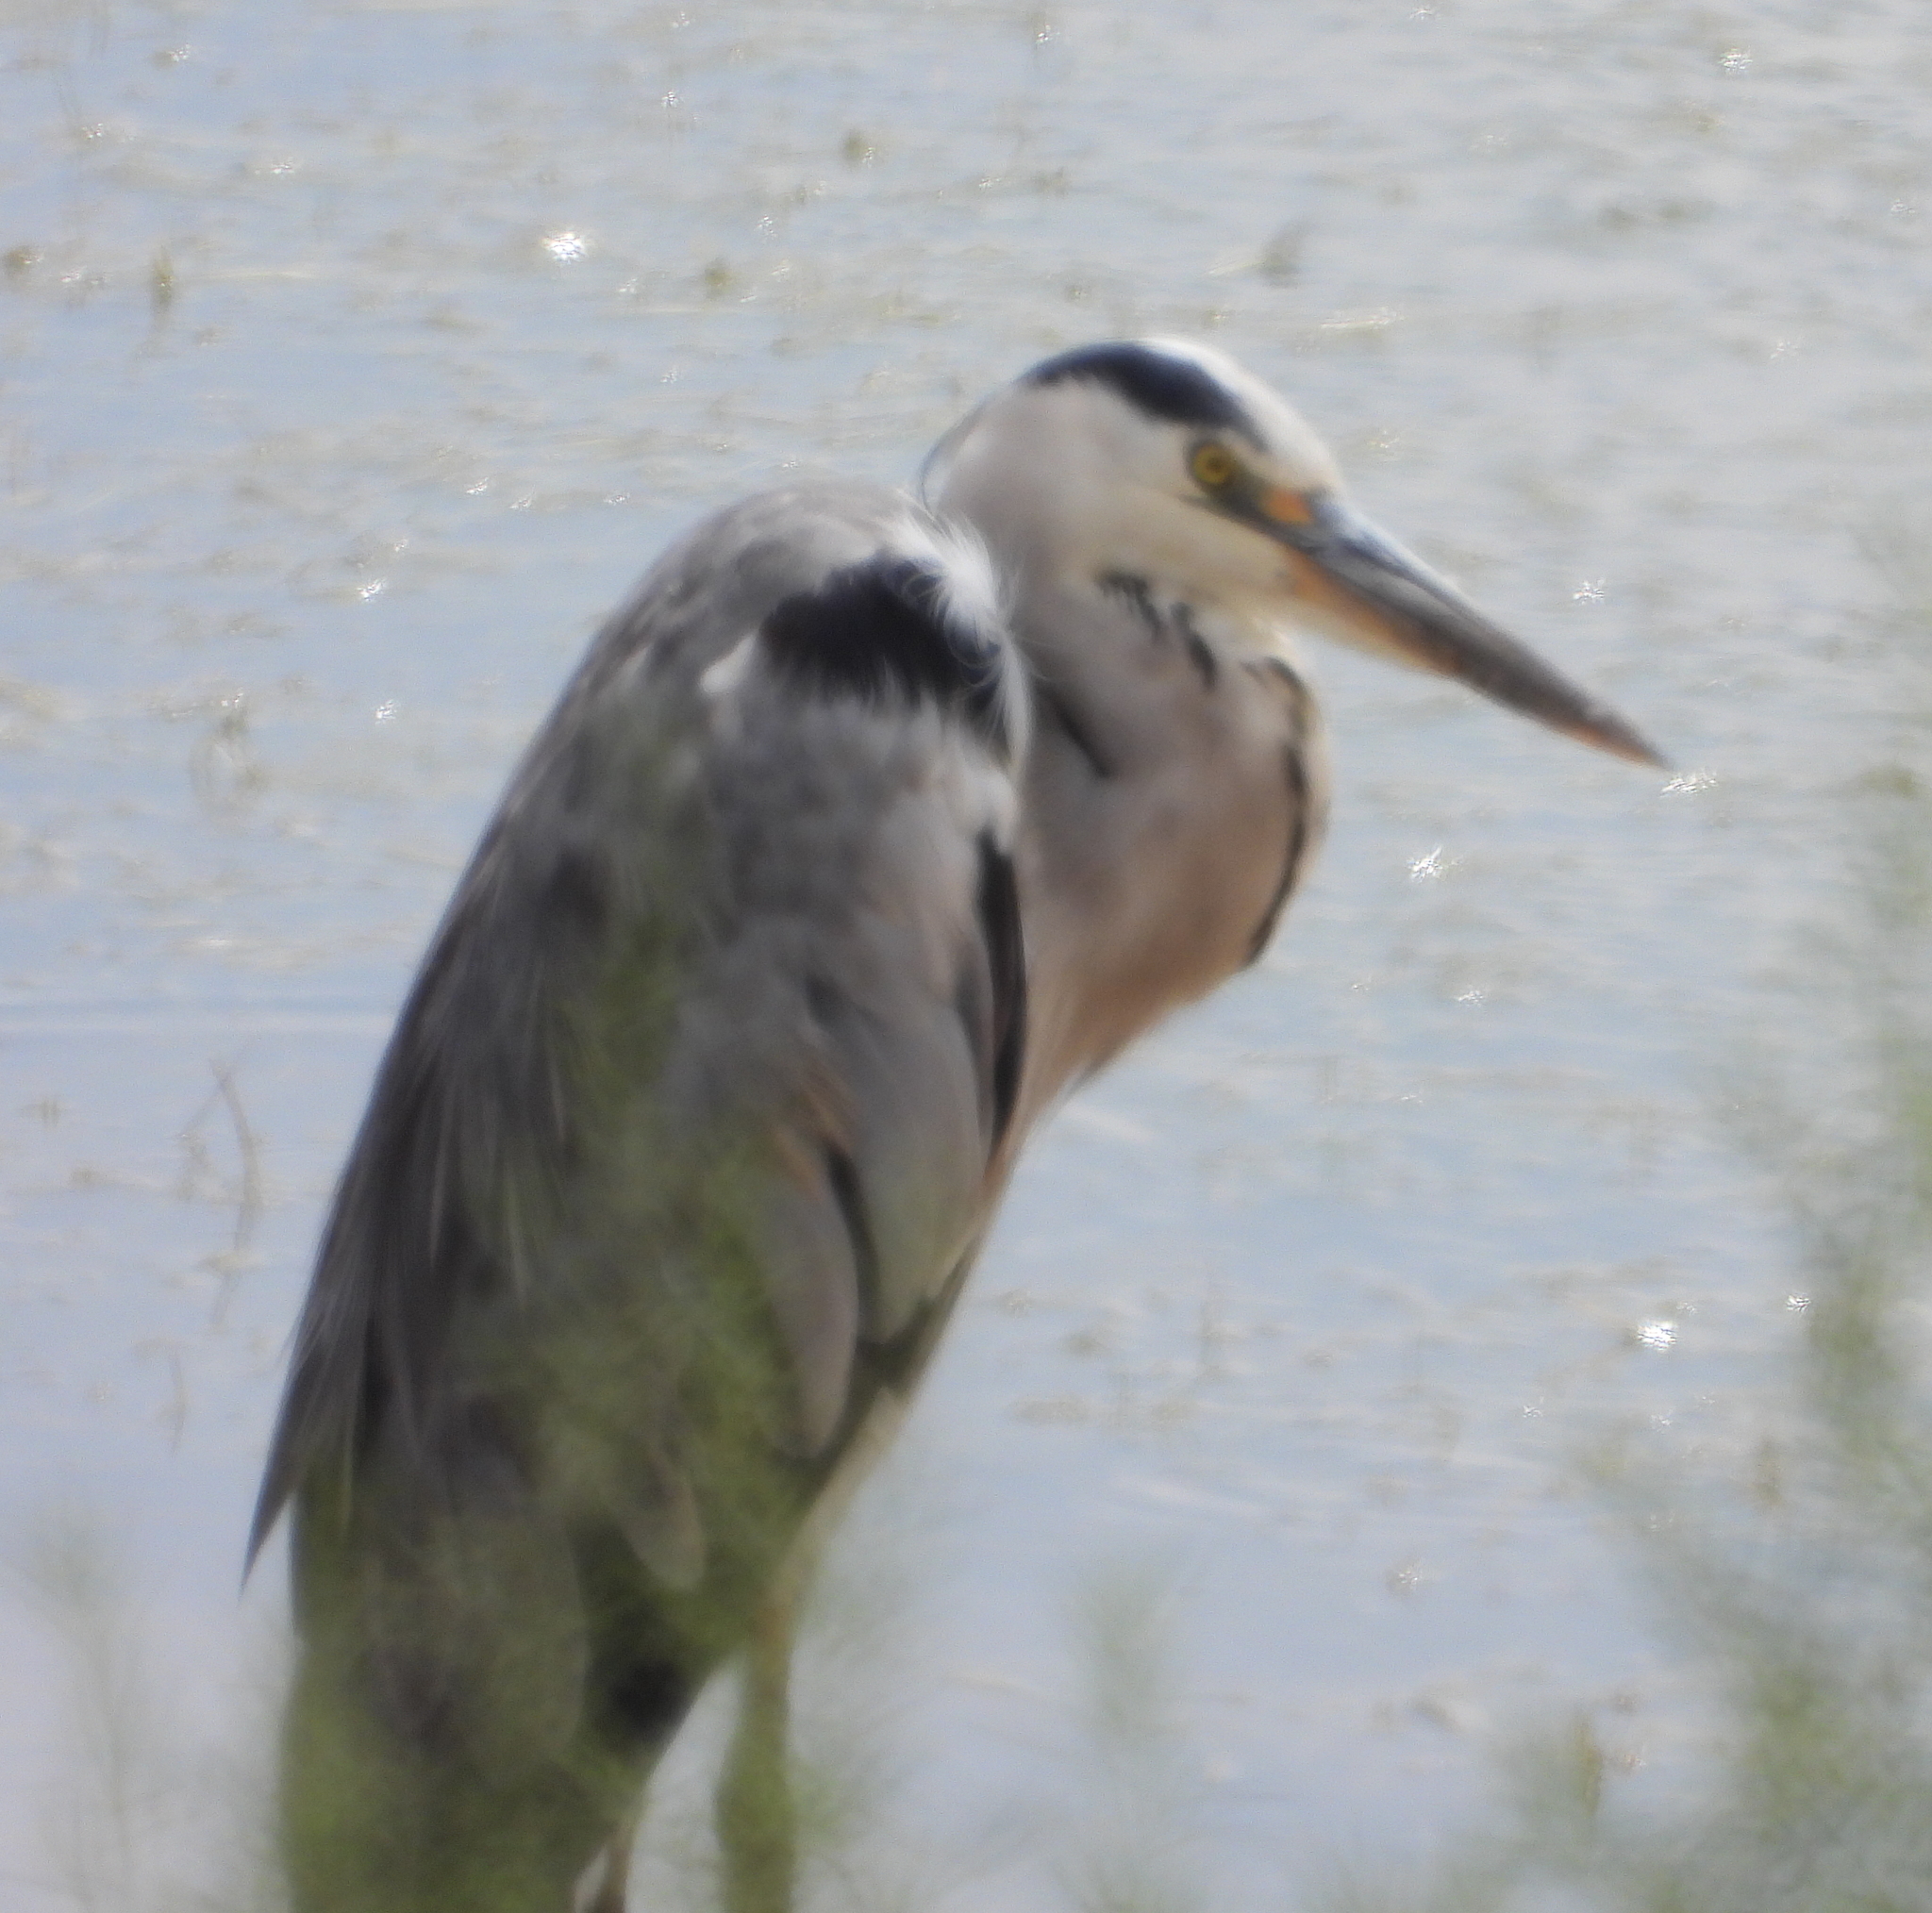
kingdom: Animalia
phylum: Chordata
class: Aves
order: Pelecaniformes
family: Ardeidae
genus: Ardea
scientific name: Ardea cinerea
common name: Grey heron
